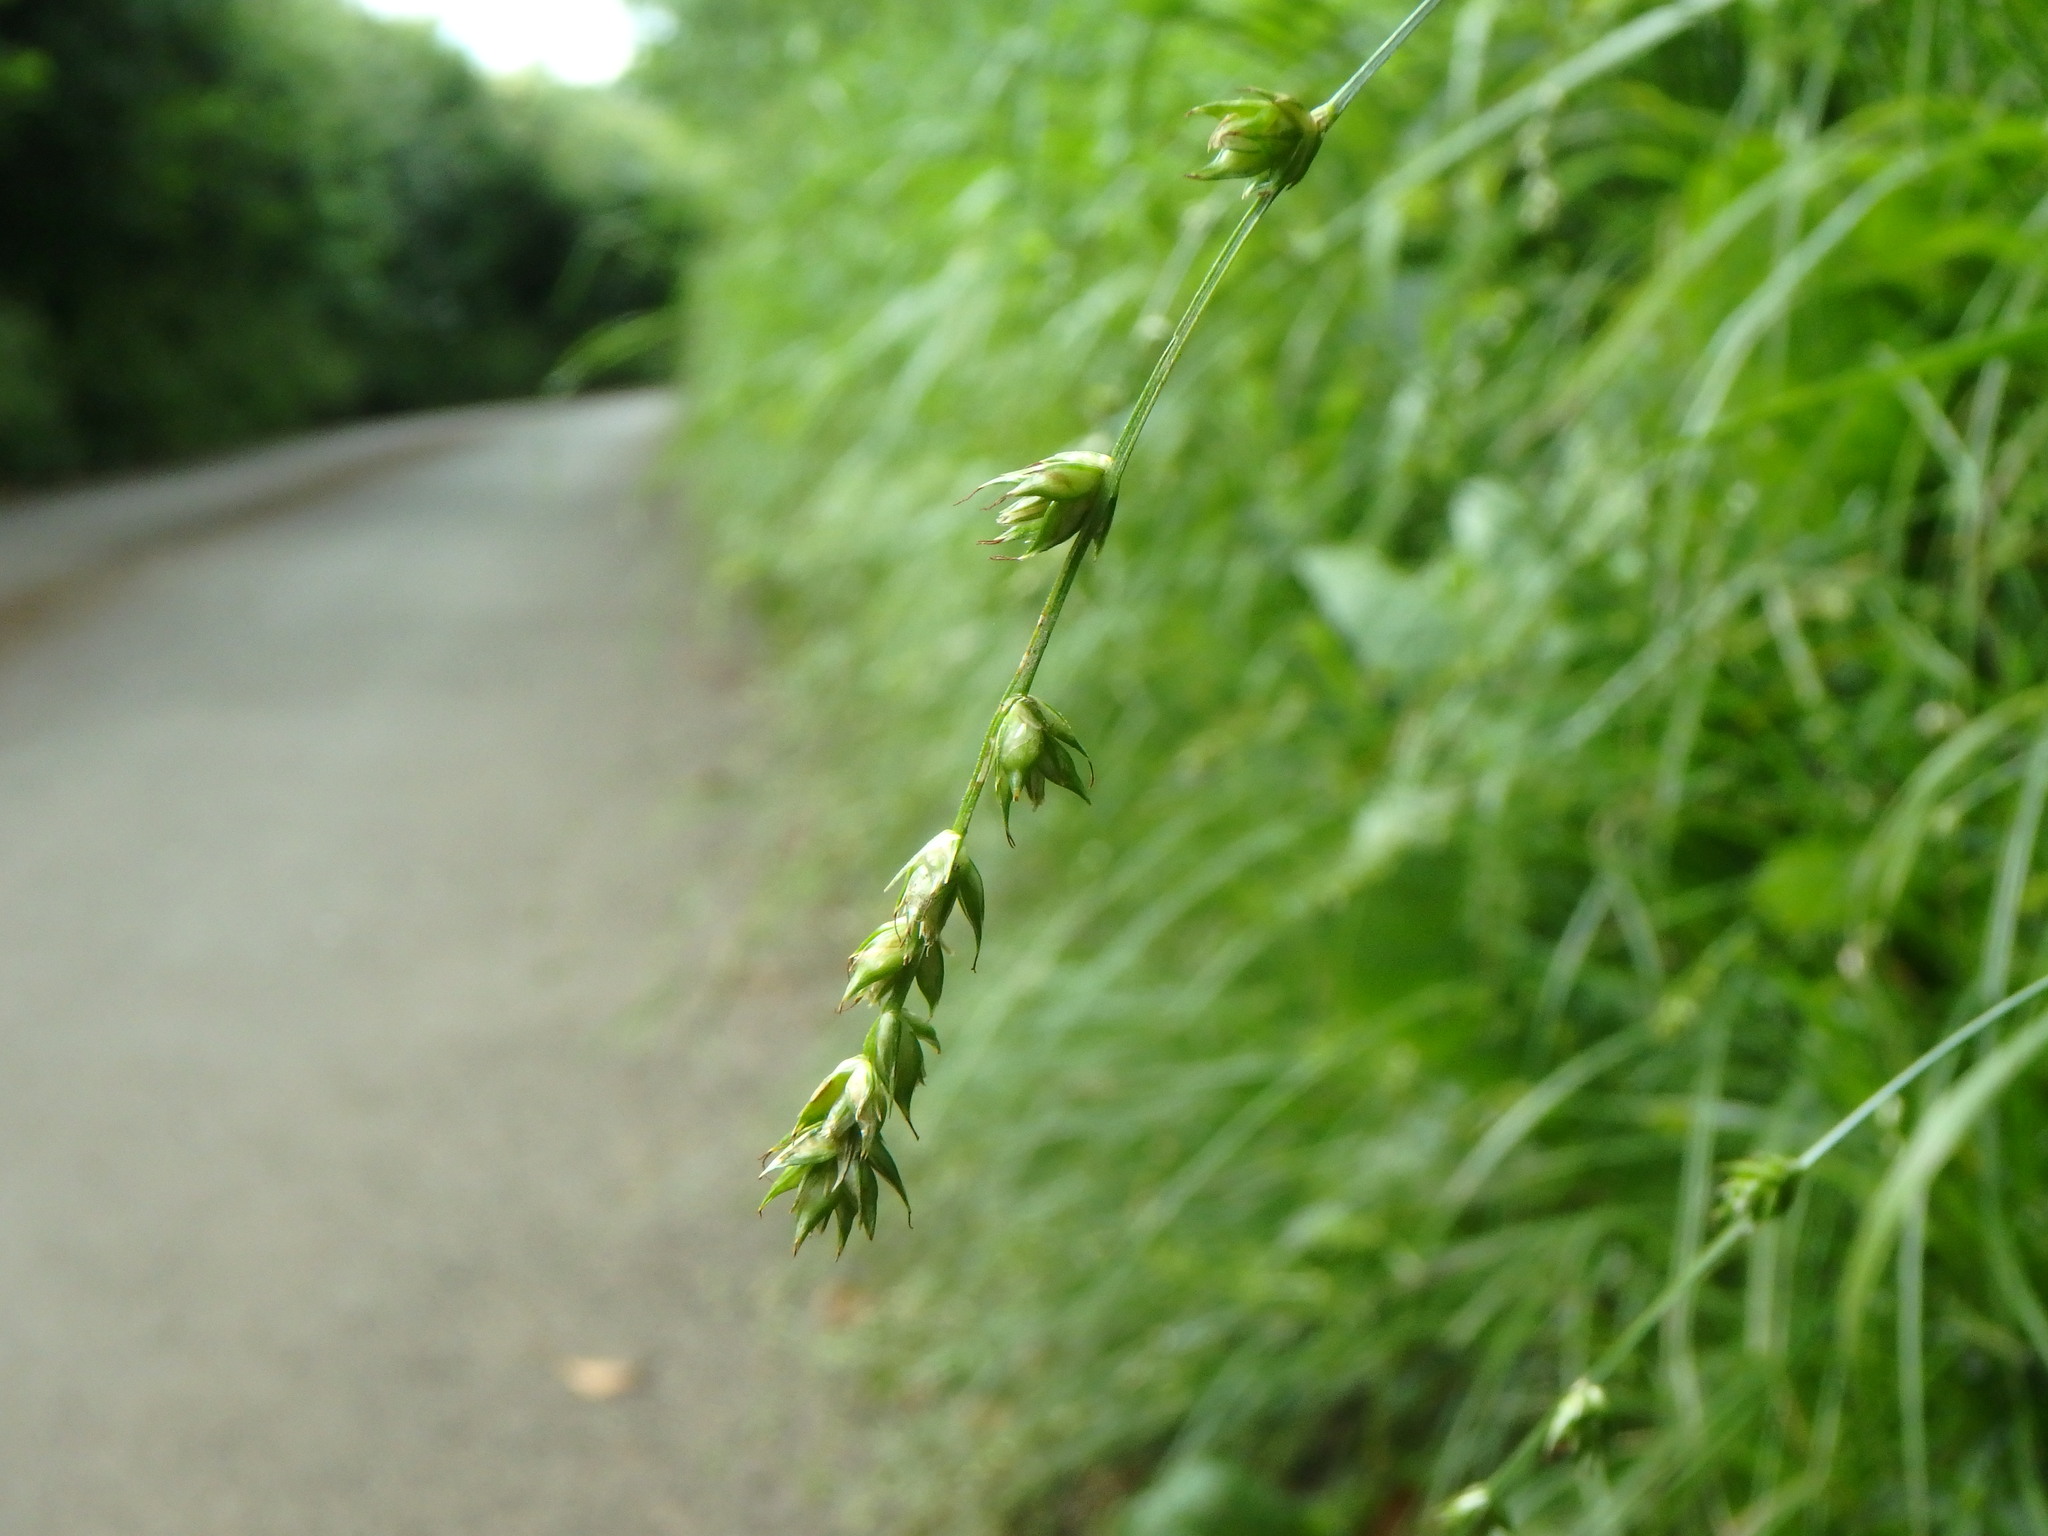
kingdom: Plantae
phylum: Tracheophyta
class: Liliopsida
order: Poales
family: Cyperaceae
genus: Carex
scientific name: Carex divulsa
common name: Grassland sedge
